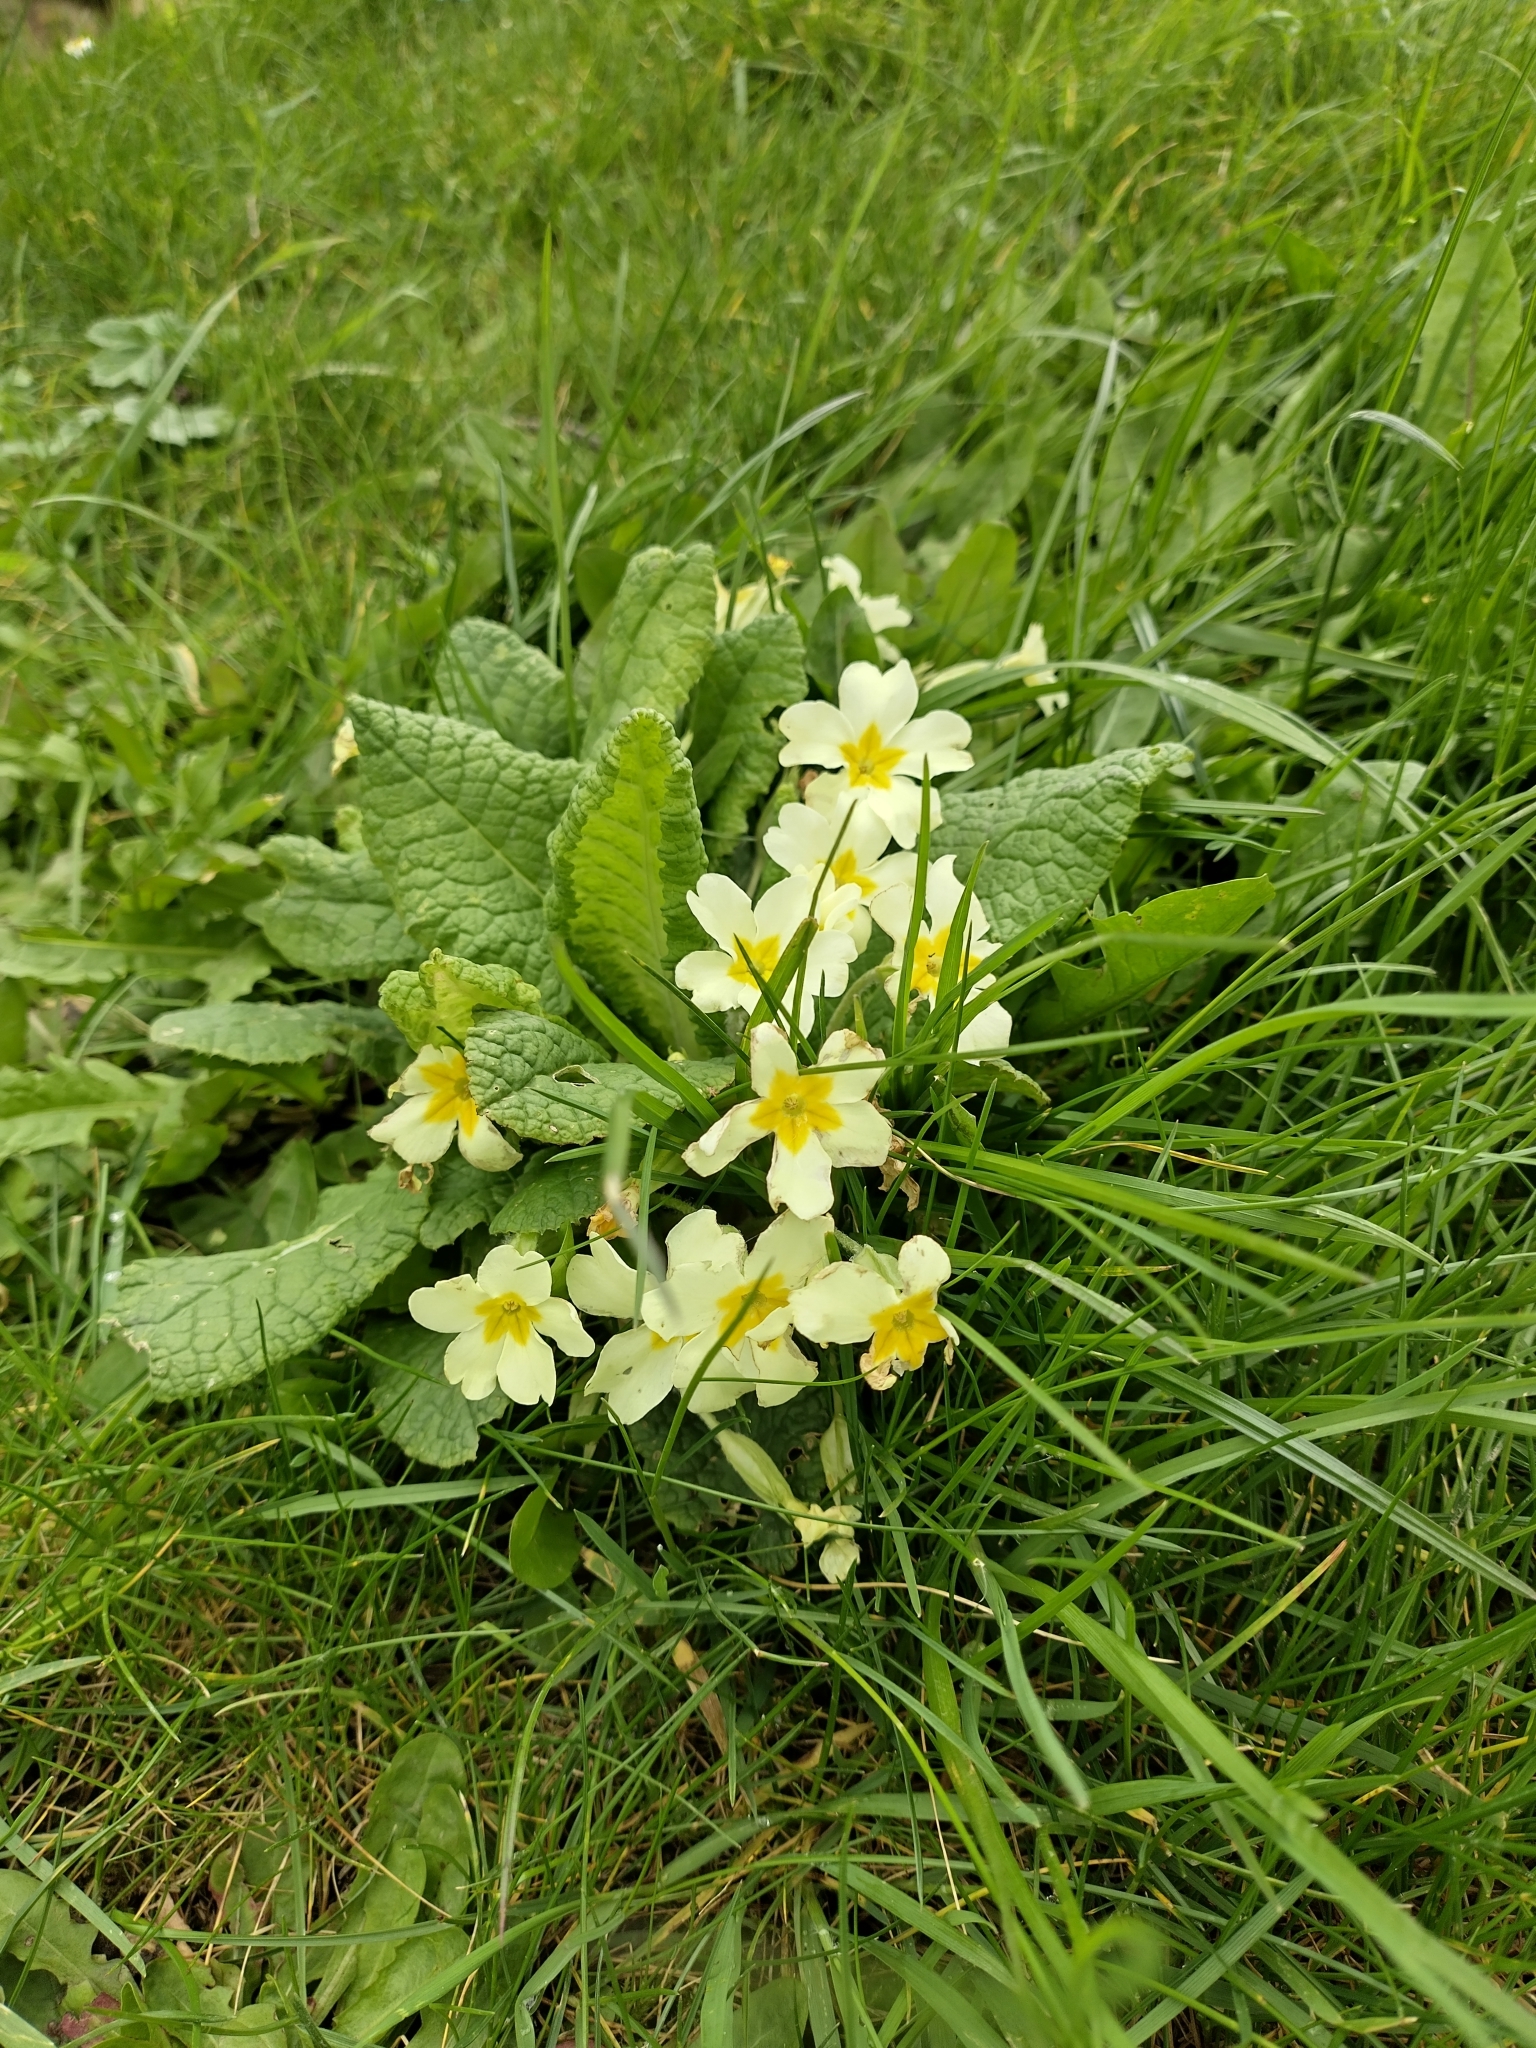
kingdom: Plantae
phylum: Tracheophyta
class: Magnoliopsida
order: Ericales
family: Primulaceae
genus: Primula
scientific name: Primula vulgaris
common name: Primrose
